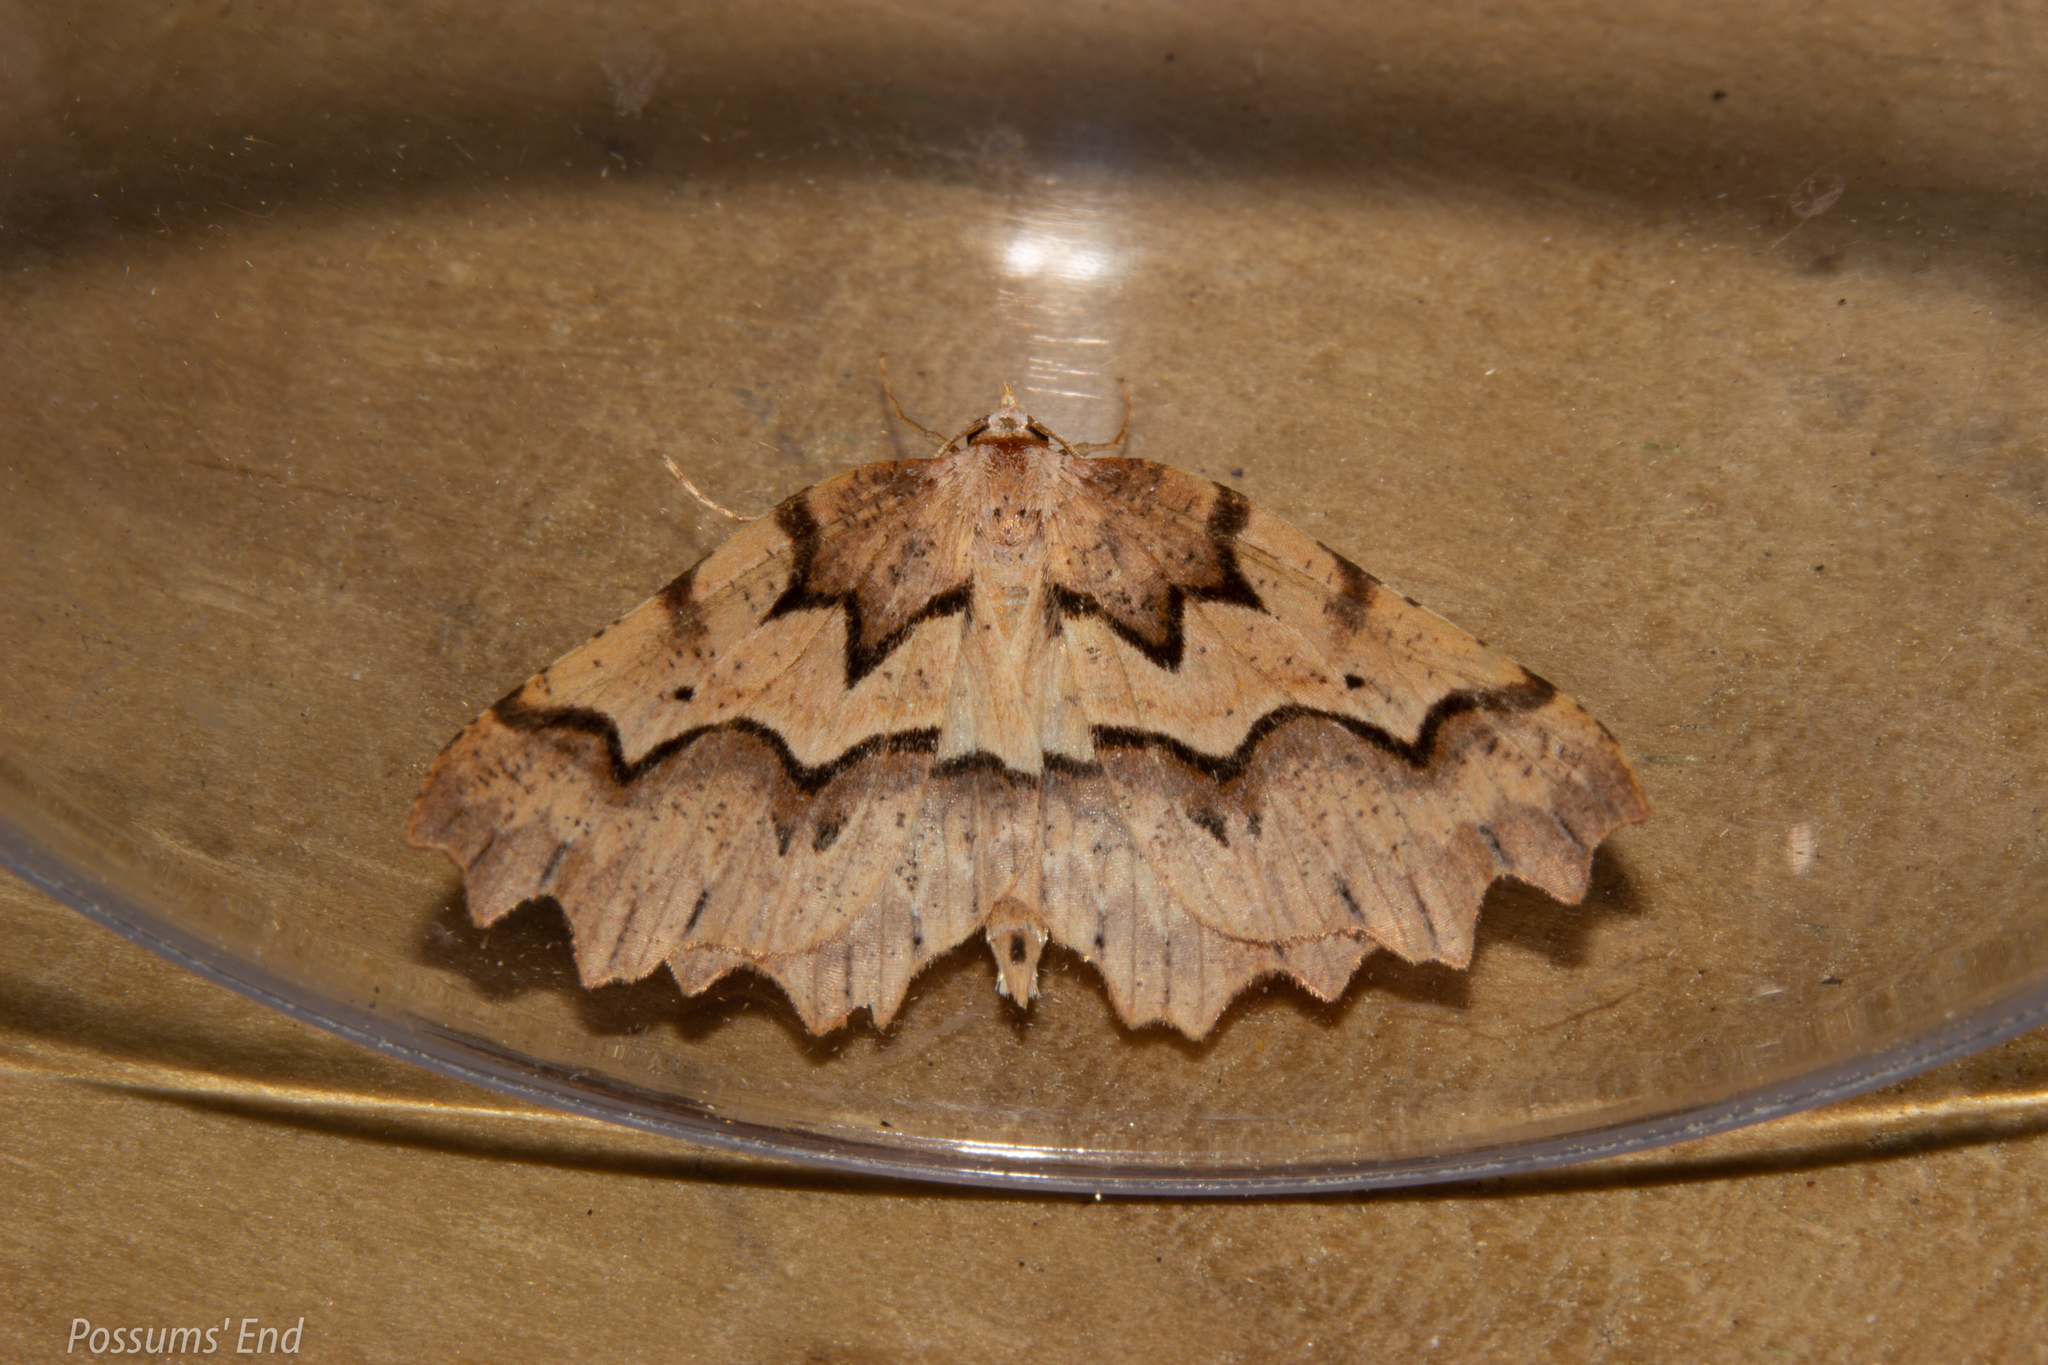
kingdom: Animalia
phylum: Arthropoda
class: Insecta
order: Lepidoptera
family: Geometridae
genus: Ischalis
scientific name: Ischalis fortinata
